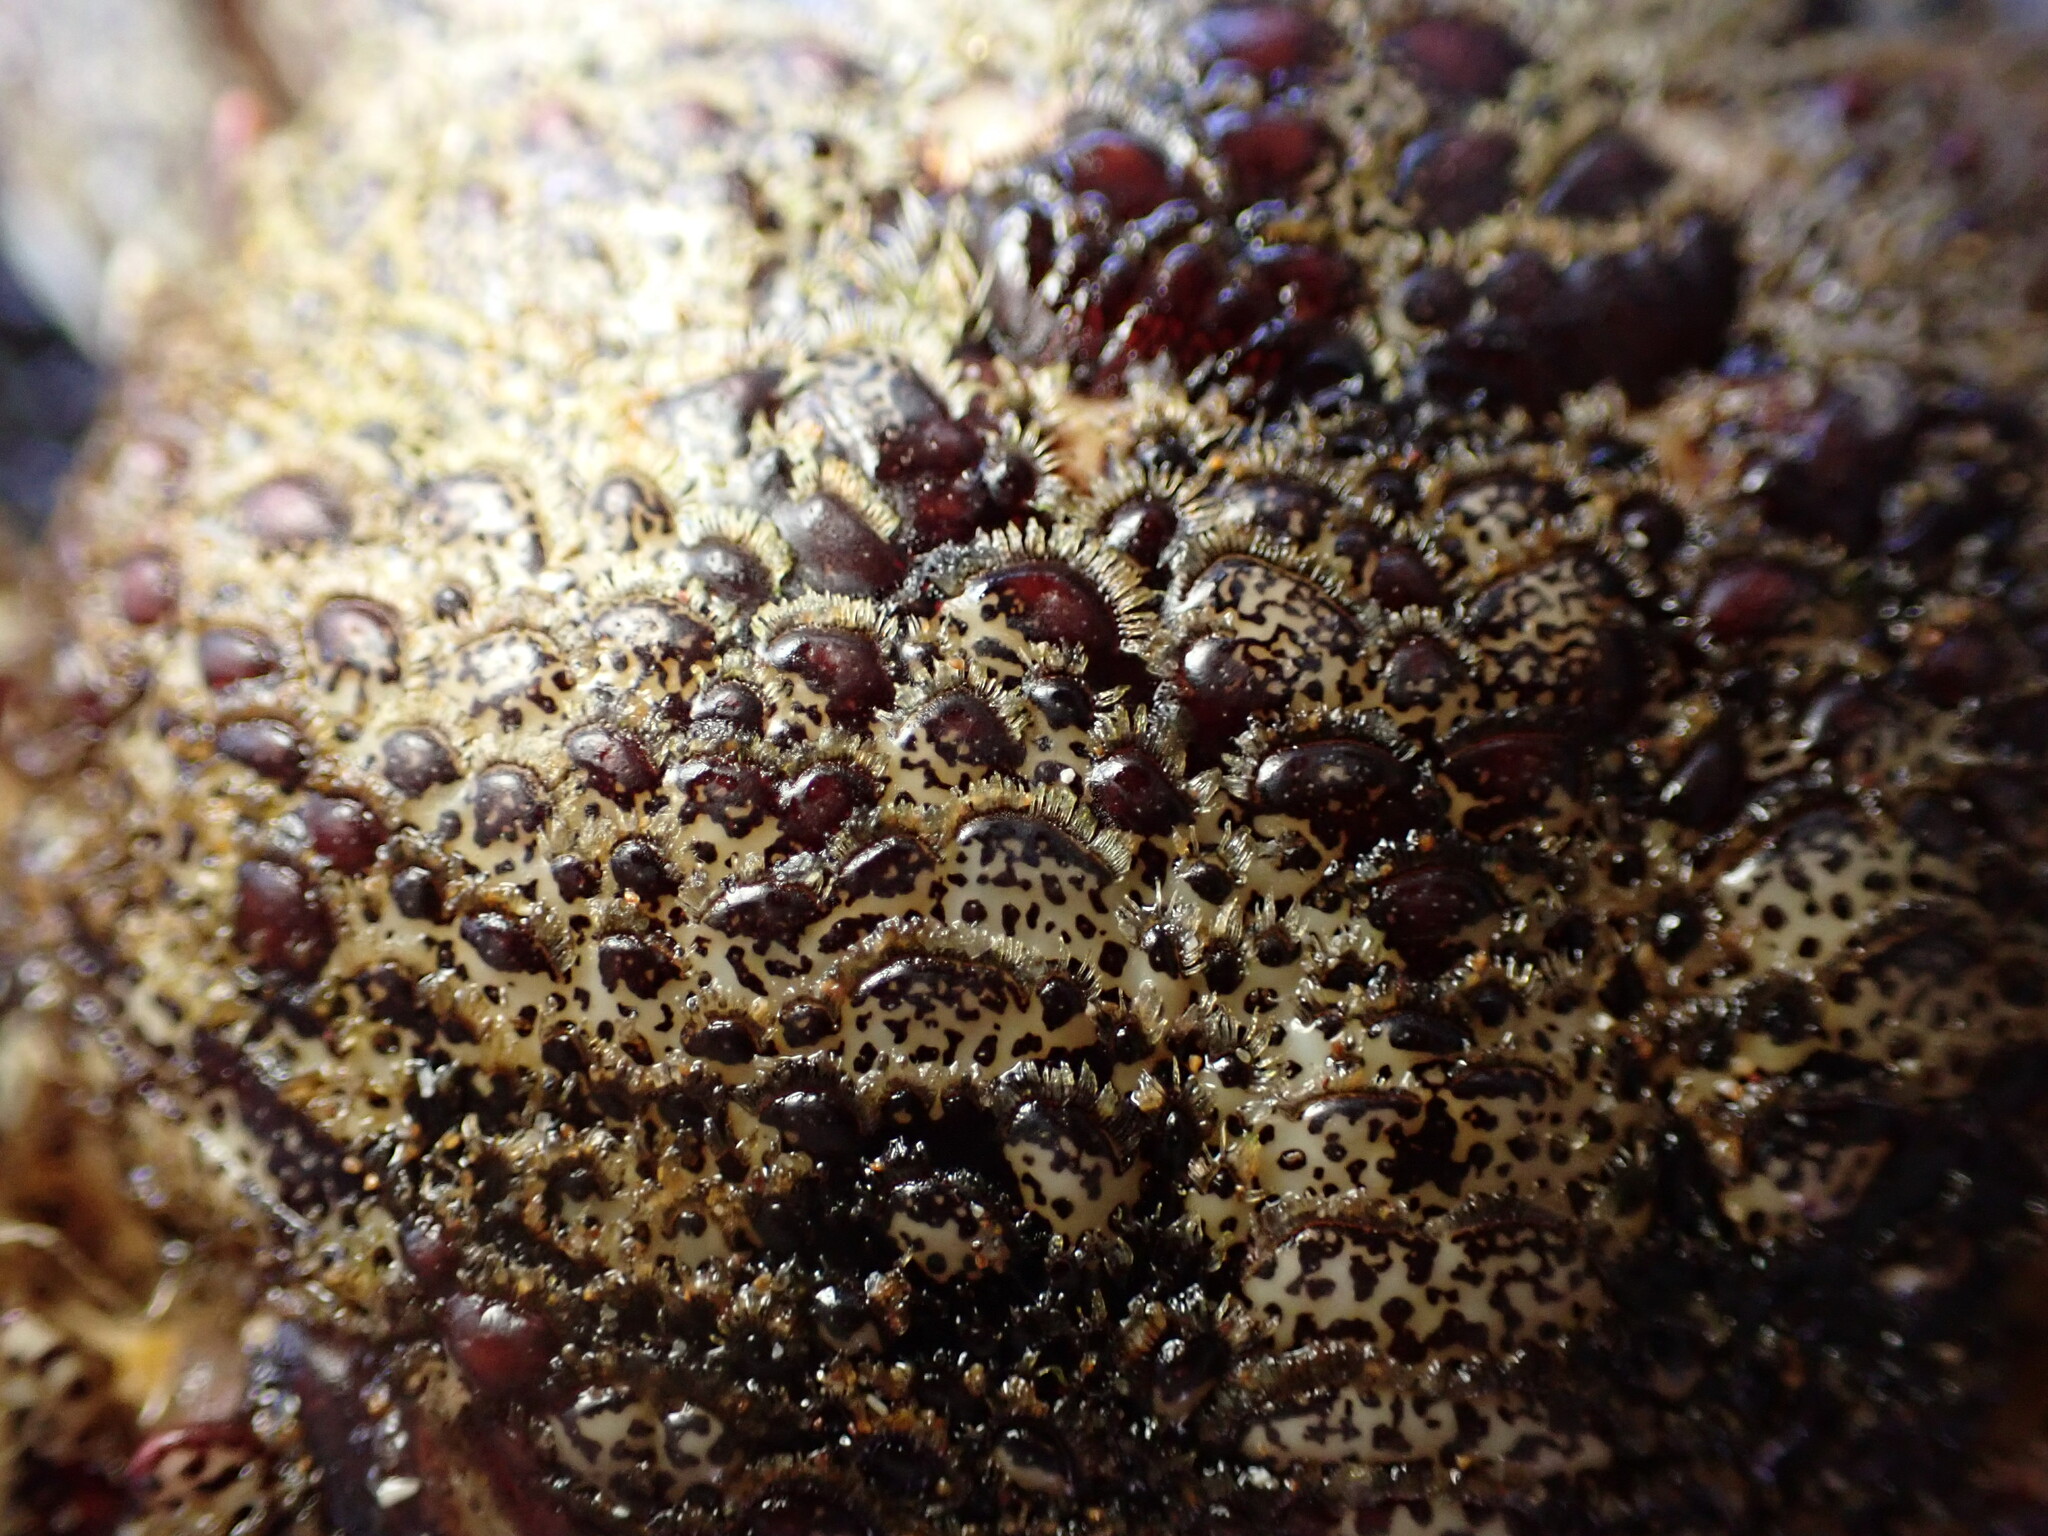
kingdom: Animalia
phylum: Arthropoda
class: Malacostraca
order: Decapoda
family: Plagusiidae
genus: Plagusia
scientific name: Plagusia squamosa
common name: Scaly rock crab
